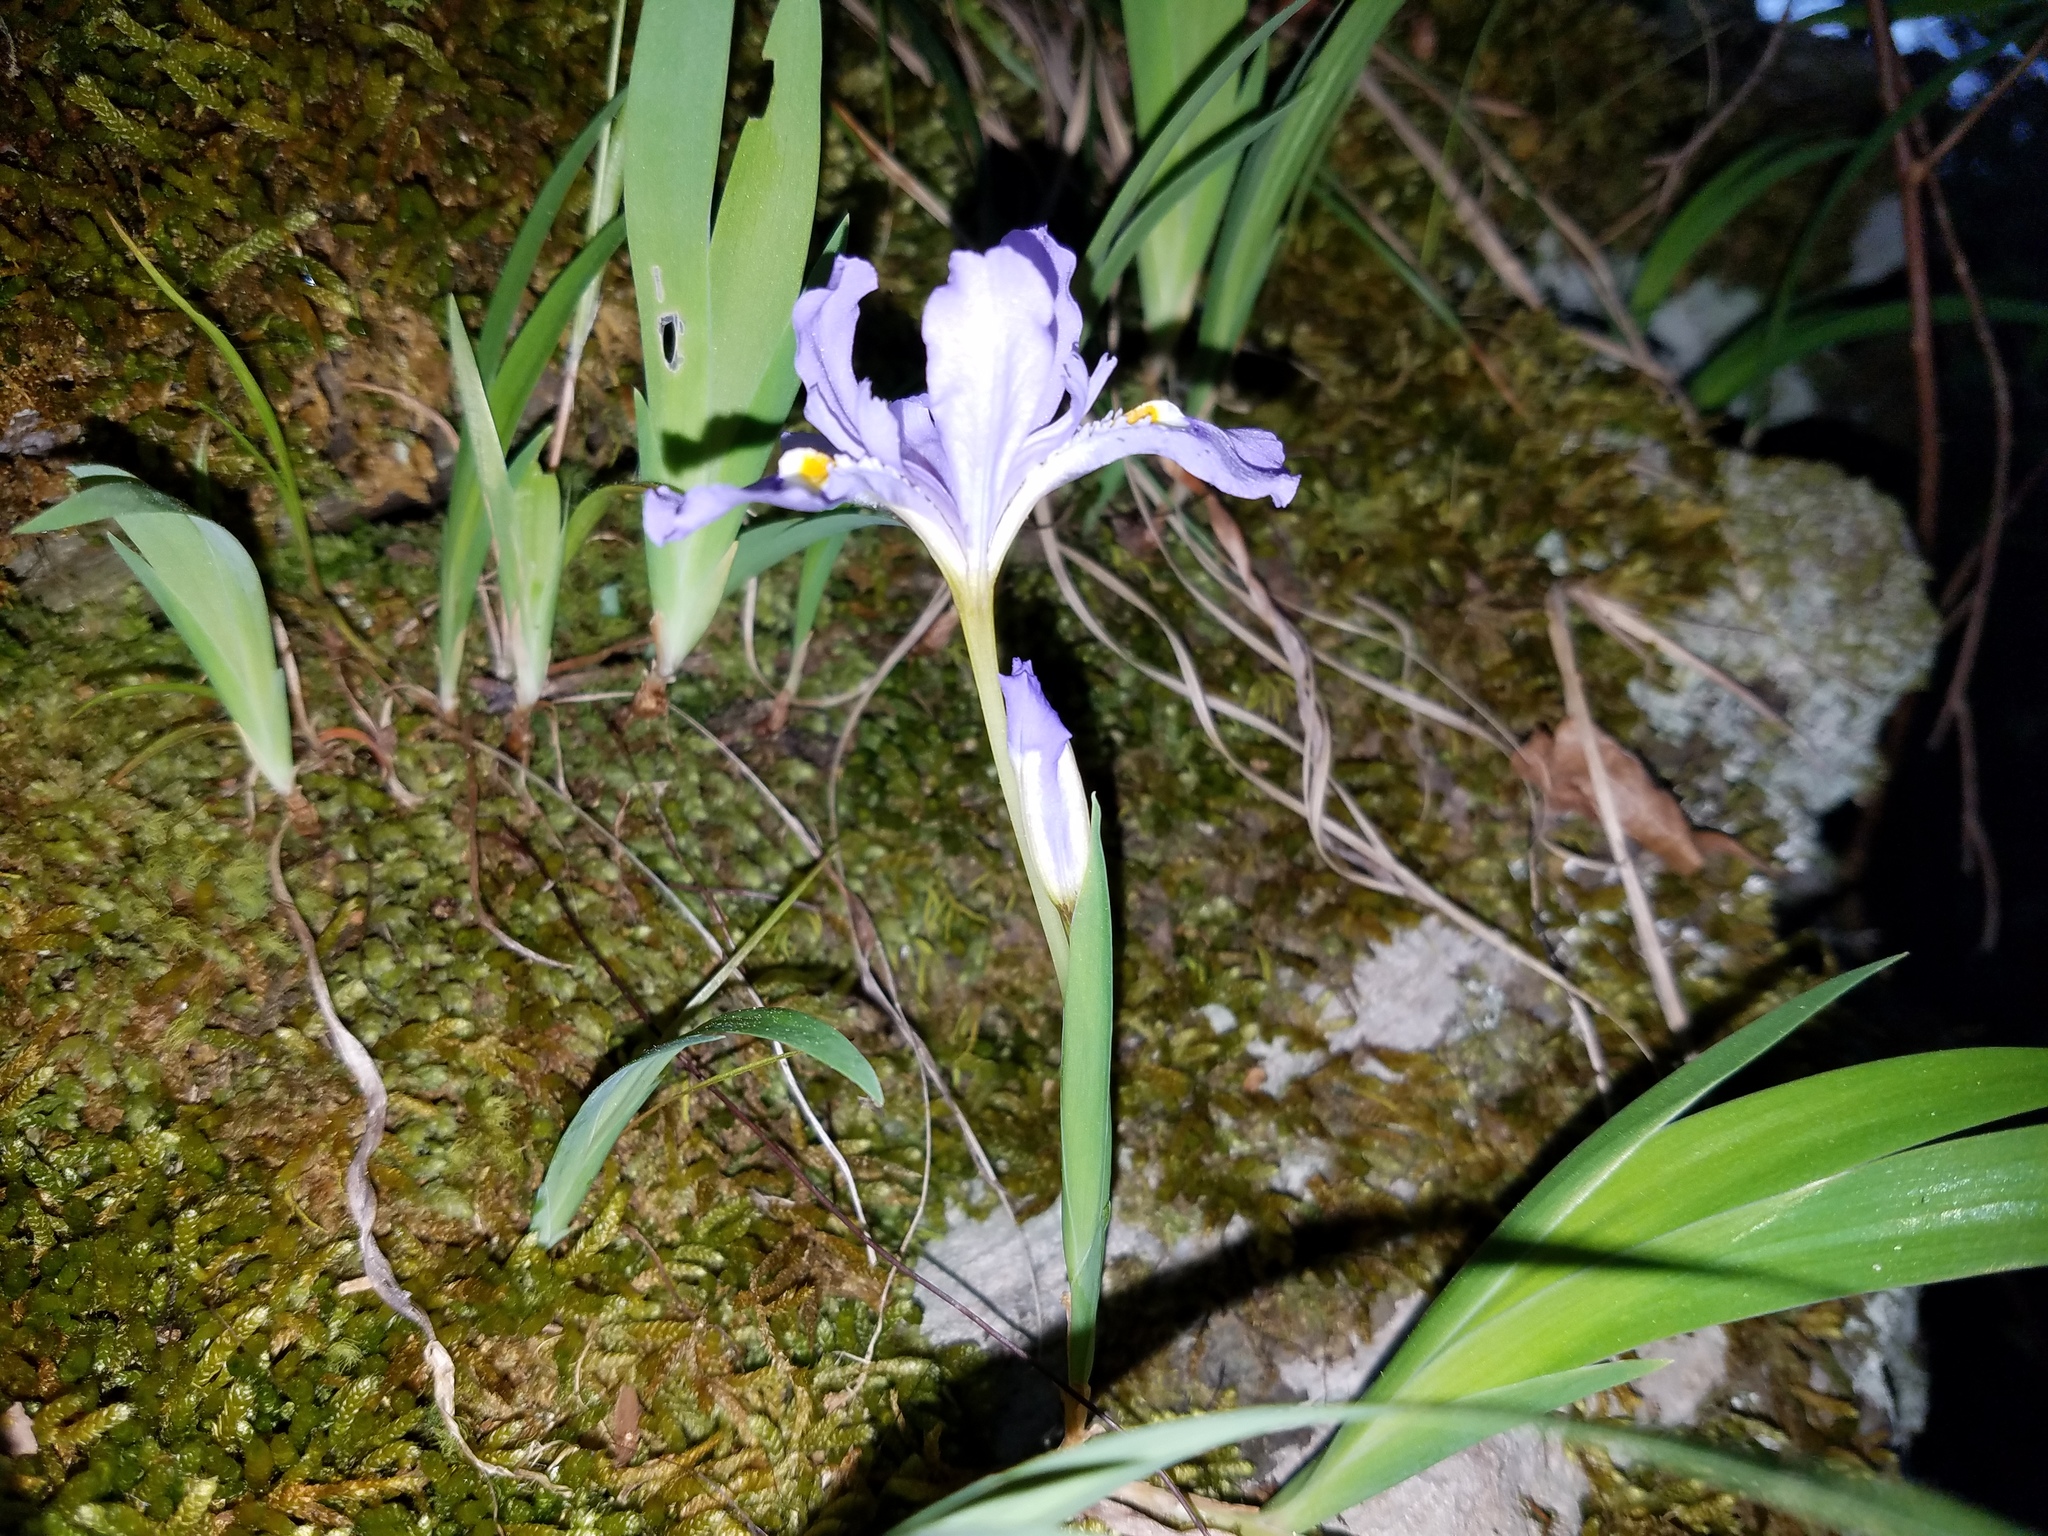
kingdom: Plantae
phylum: Tracheophyta
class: Liliopsida
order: Asparagales
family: Iridaceae
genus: Iris
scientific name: Iris cristata
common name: Crested iris
